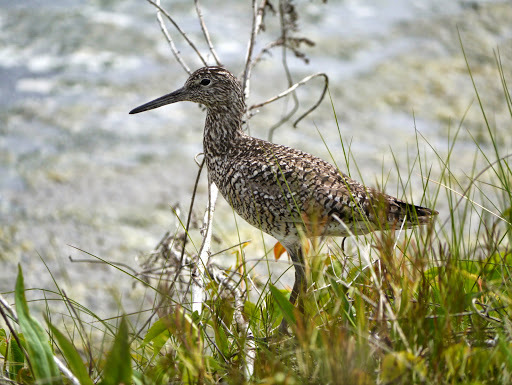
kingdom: Animalia
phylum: Chordata
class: Aves
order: Charadriiformes
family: Scolopacidae
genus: Tringa
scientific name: Tringa semipalmata
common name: Willet
